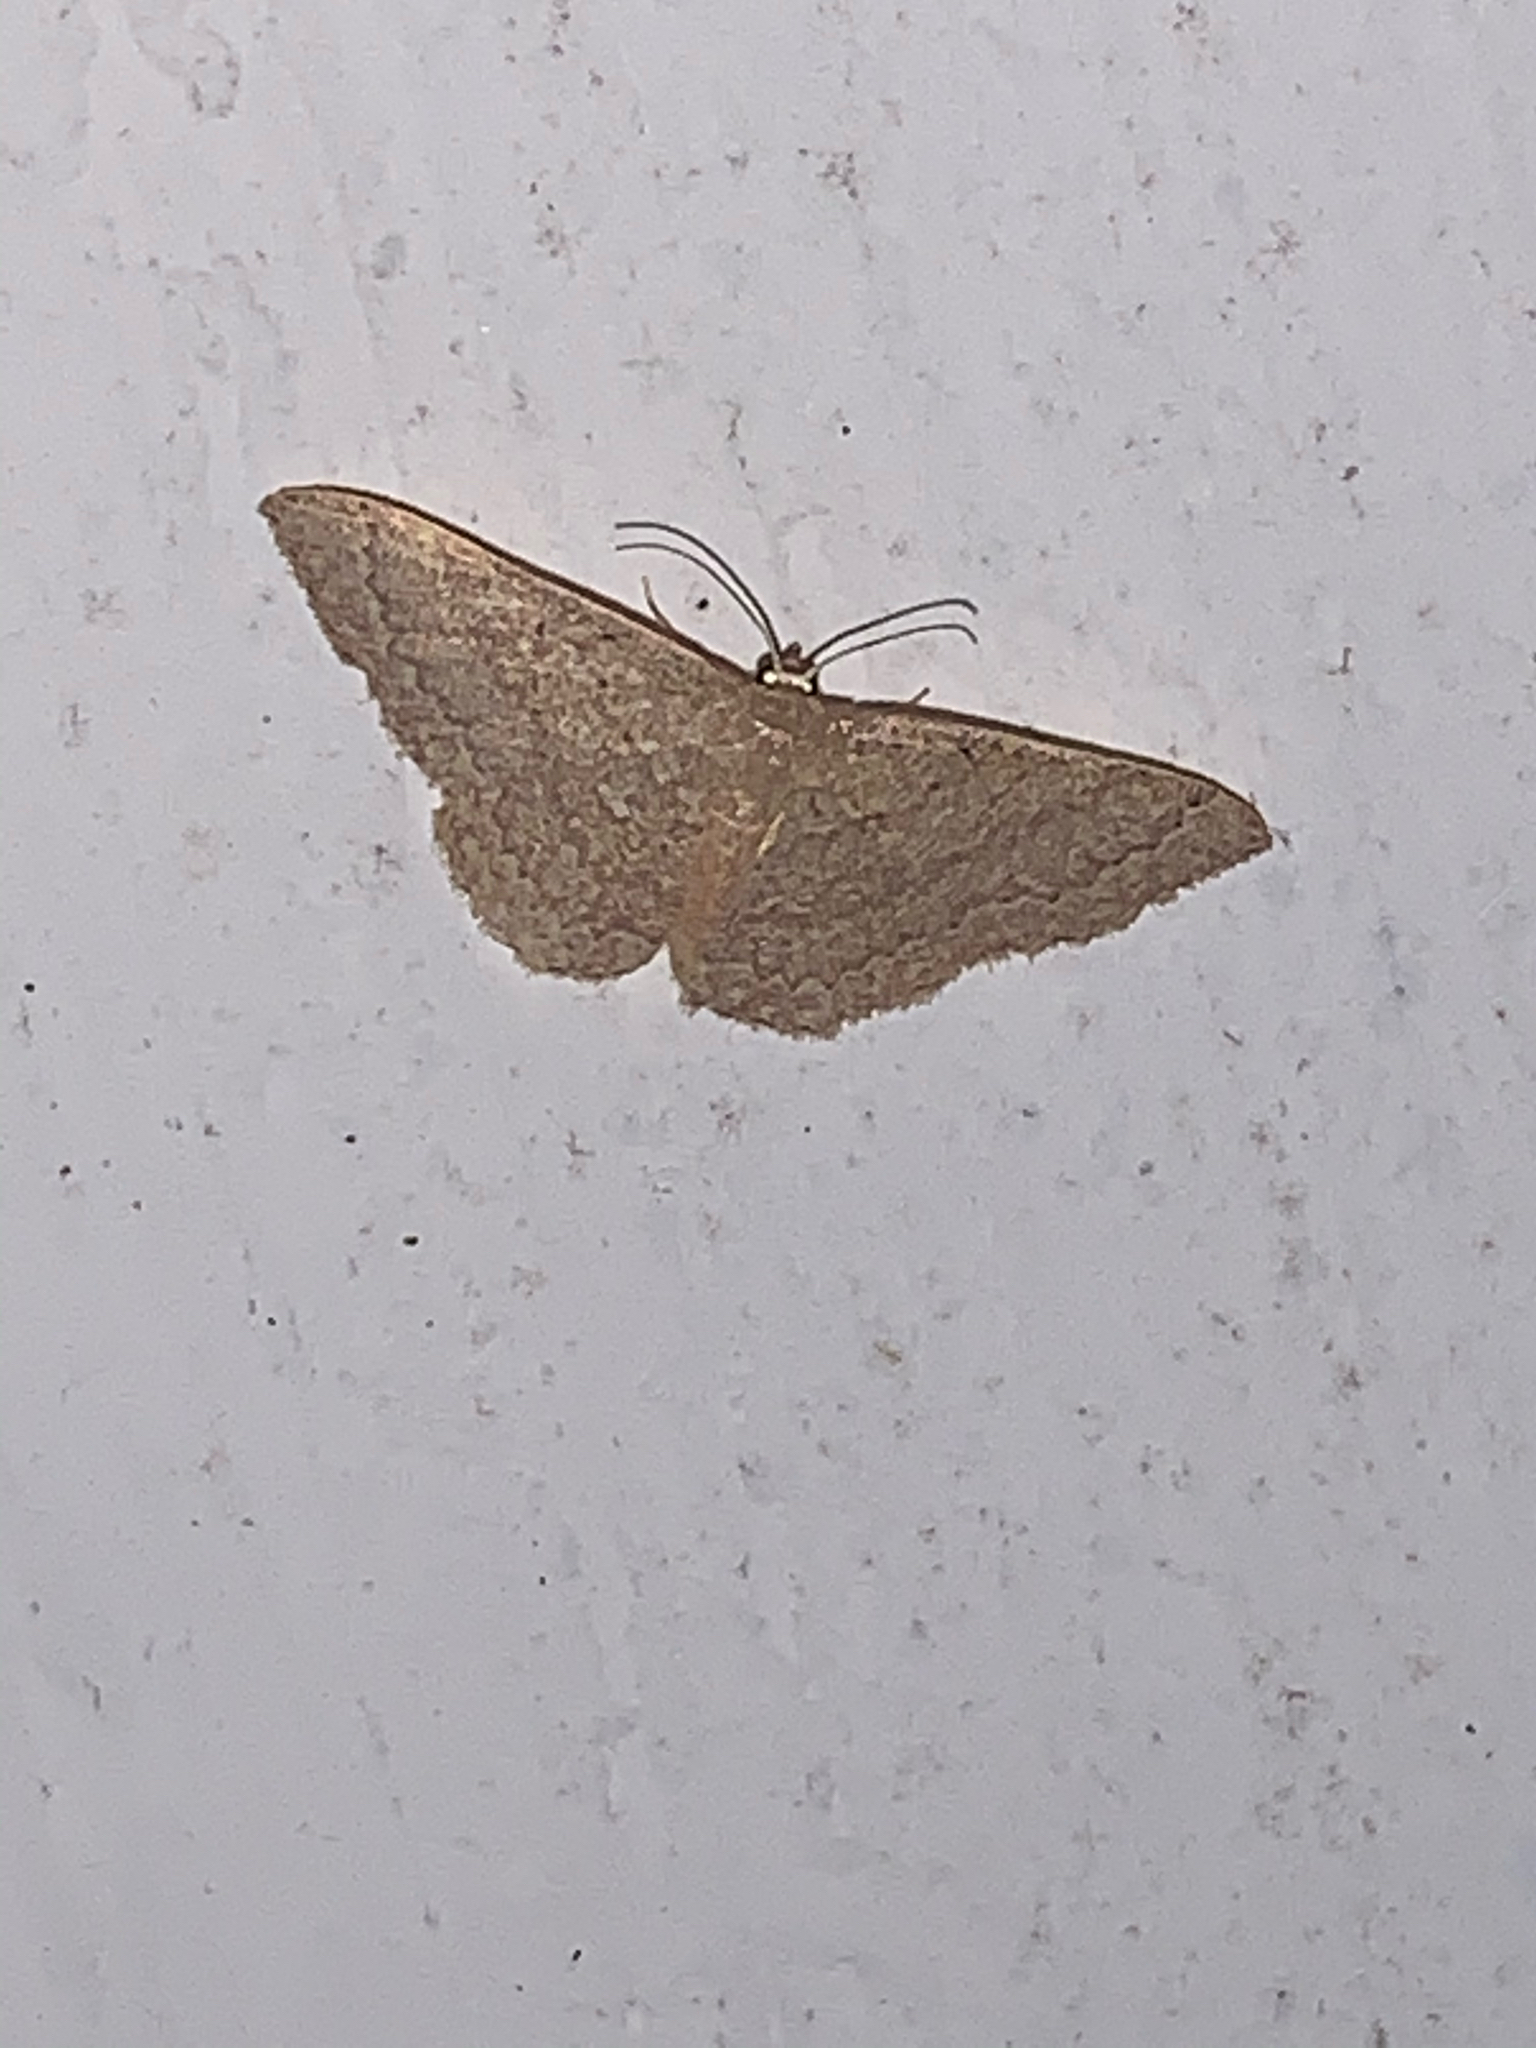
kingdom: Animalia
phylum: Arthropoda
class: Insecta
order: Lepidoptera
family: Geometridae
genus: Pleuroprucha
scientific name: Pleuroprucha insulsaria
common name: Common tan wave
